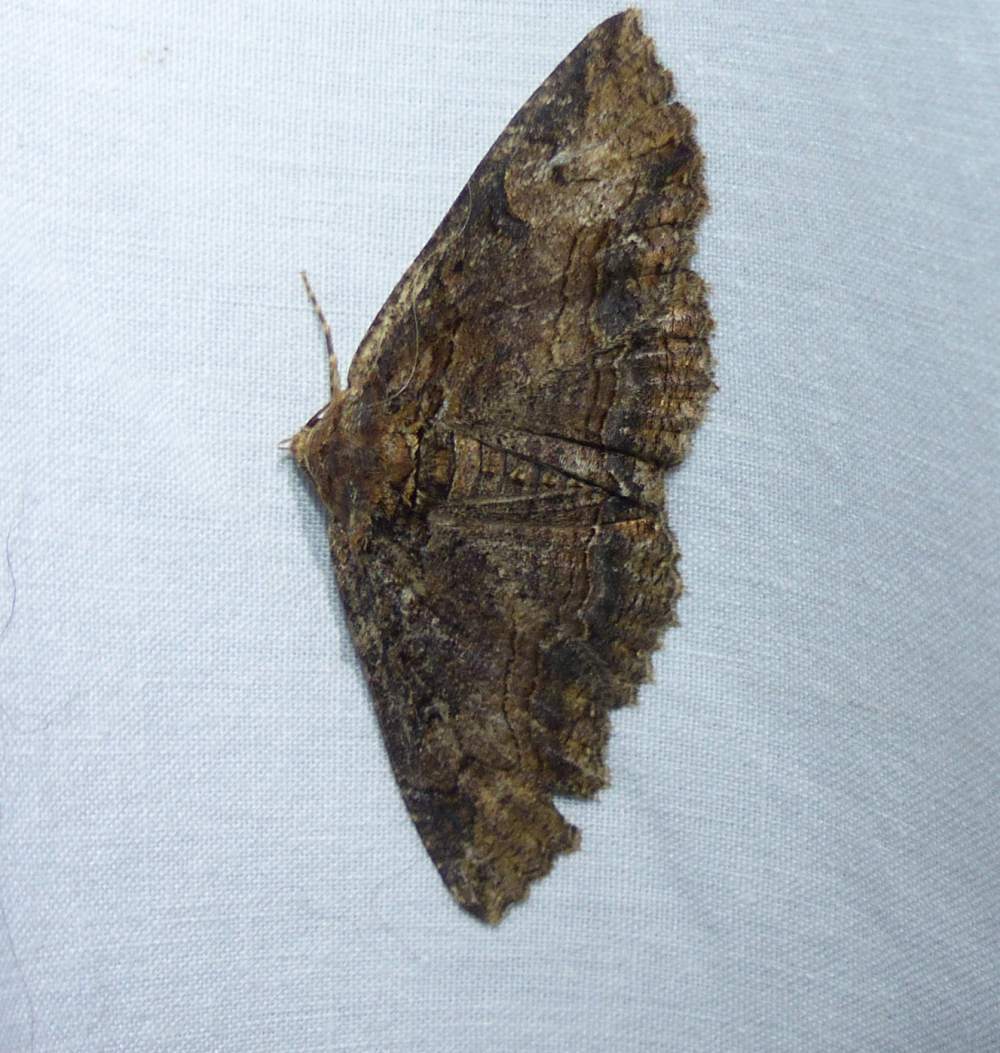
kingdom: Animalia
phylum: Arthropoda
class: Insecta
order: Lepidoptera
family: Erebidae
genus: Zale
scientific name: Zale minerea
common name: Colorful zale moth
